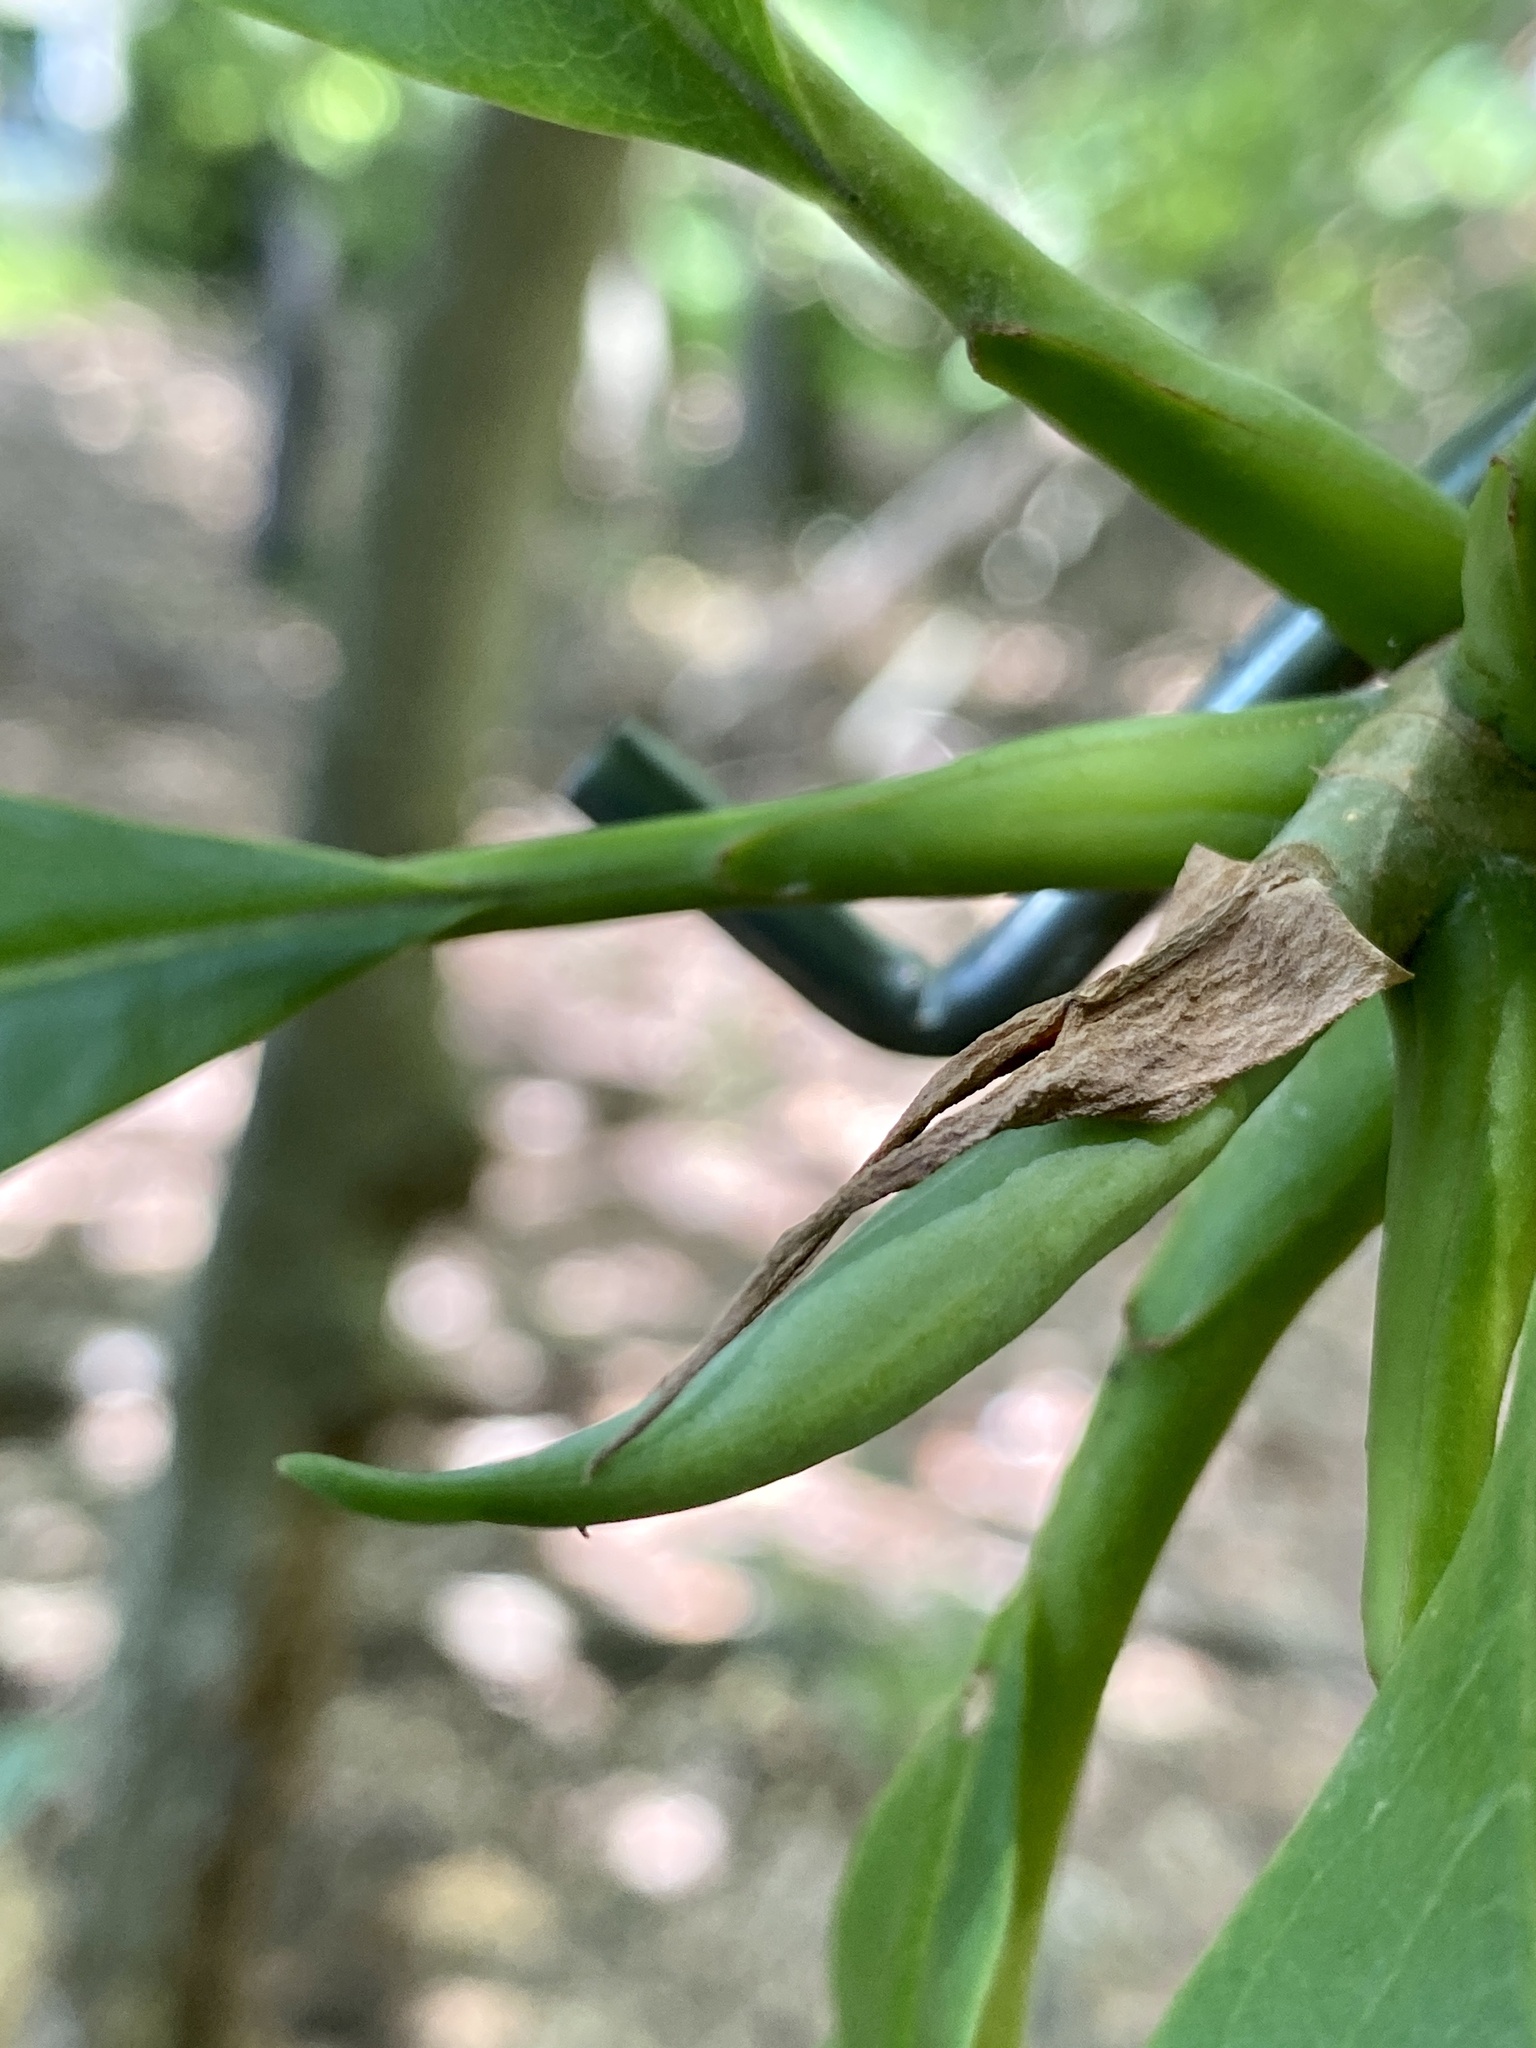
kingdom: Plantae
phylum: Tracheophyta
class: Magnoliopsida
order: Magnoliales
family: Magnoliaceae
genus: Magnolia
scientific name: Magnolia tripetala
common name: Umbrella magnolia
